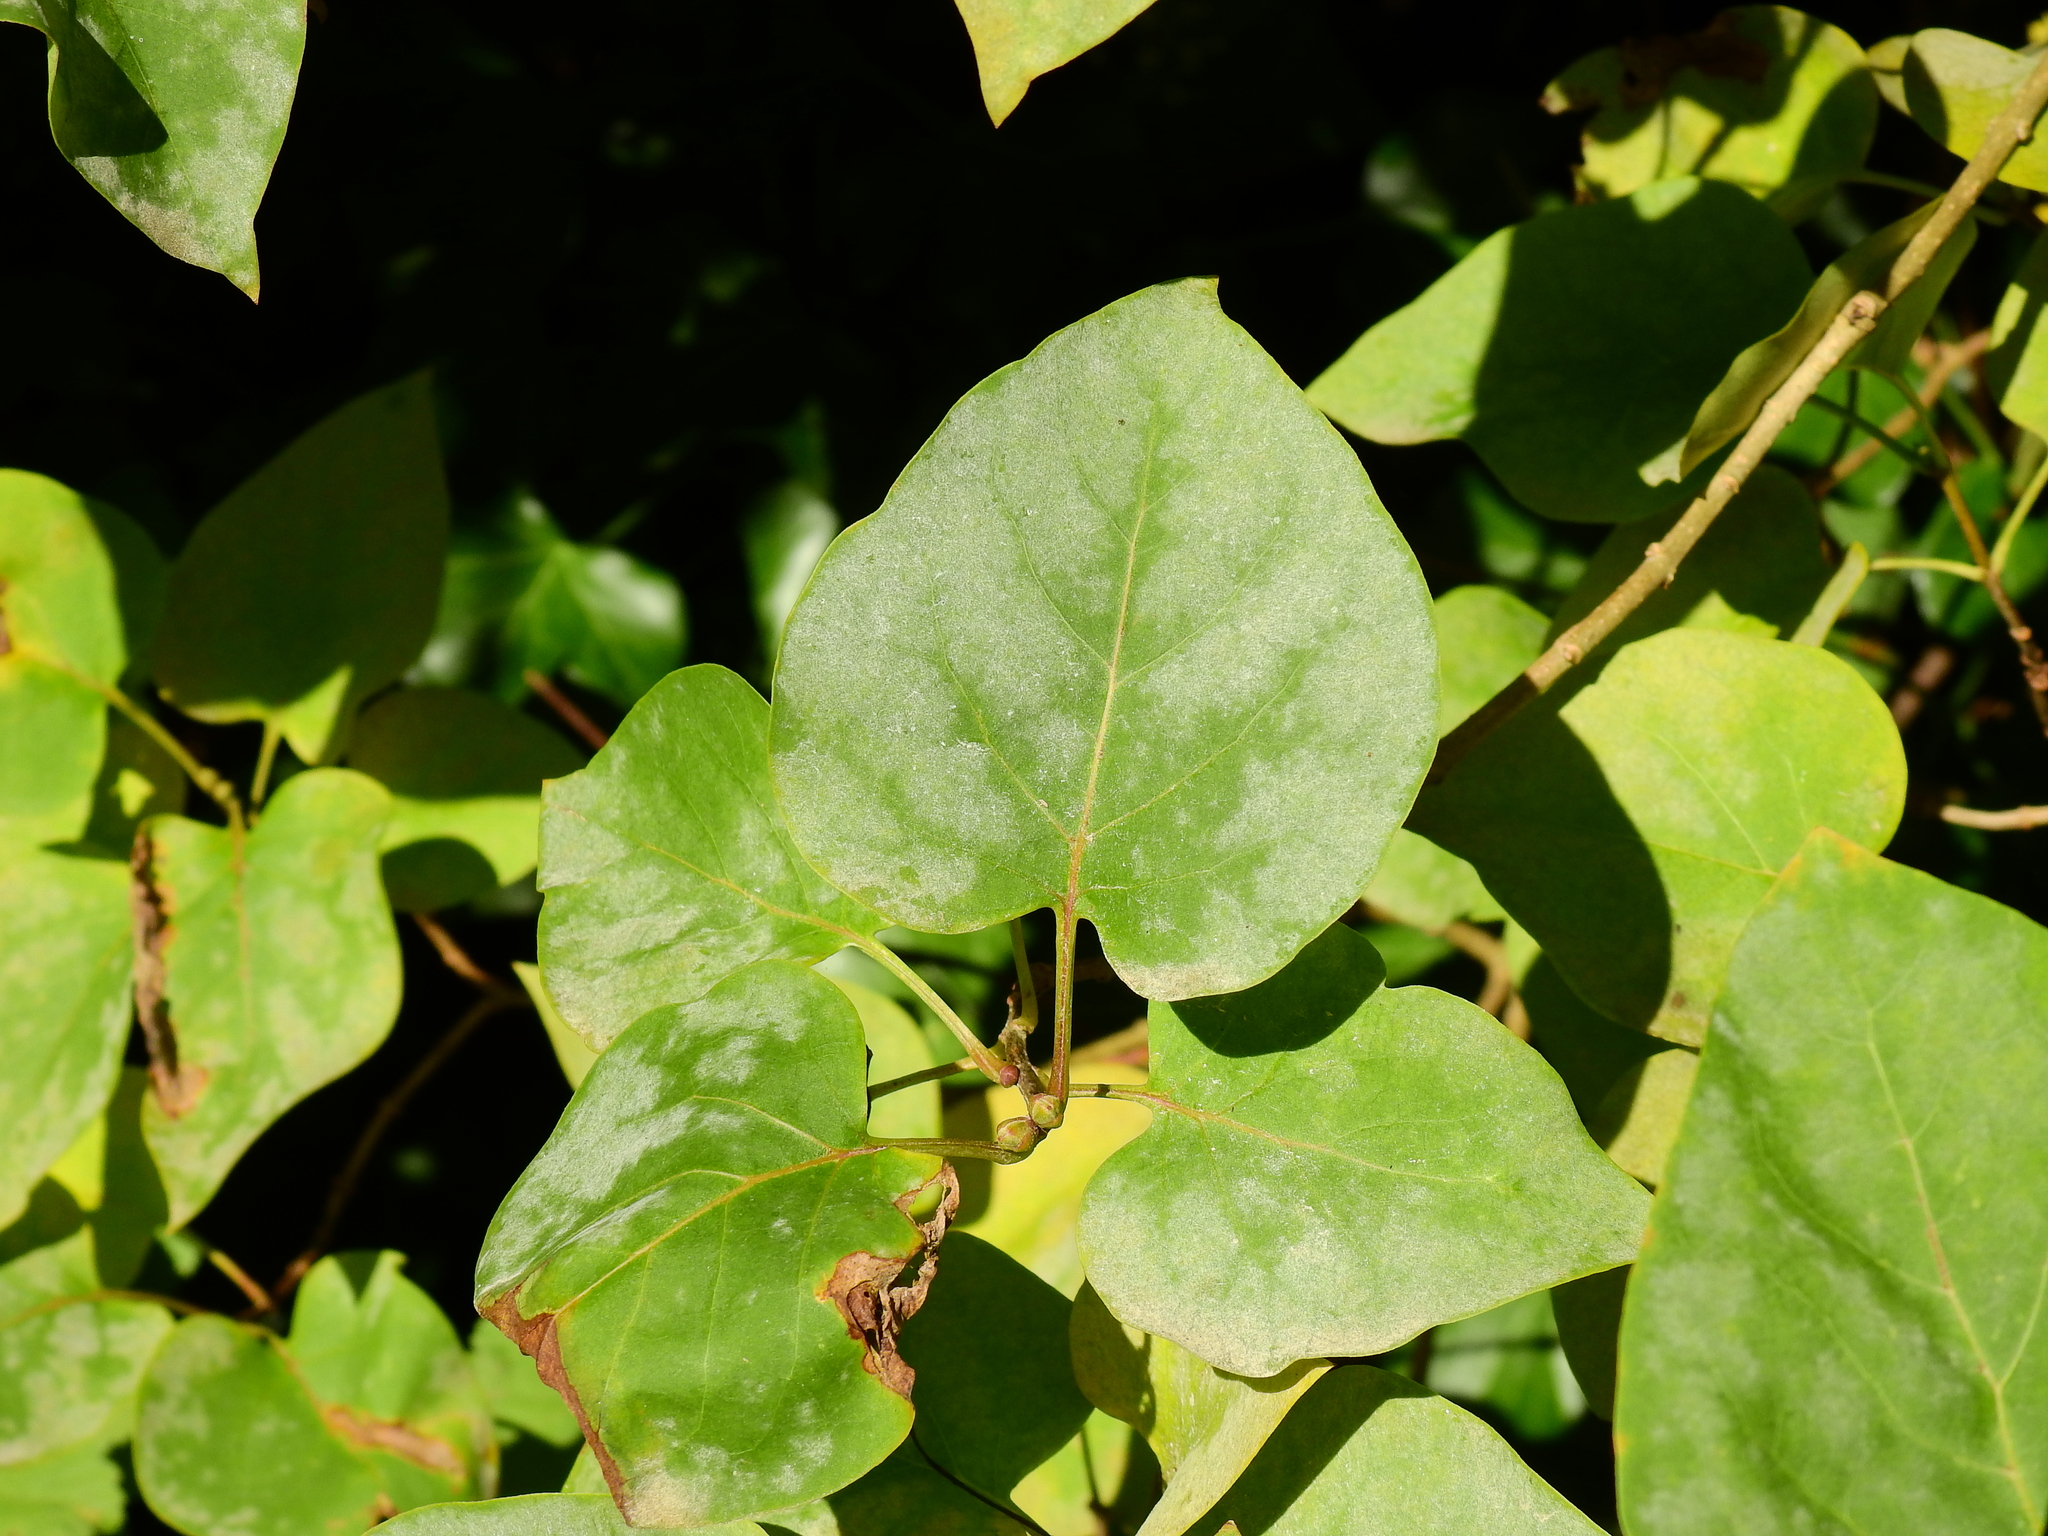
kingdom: Fungi
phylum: Ascomycota
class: Leotiomycetes
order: Helotiales
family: Erysiphaceae
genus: Erysiphe
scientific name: Erysiphe syringae
